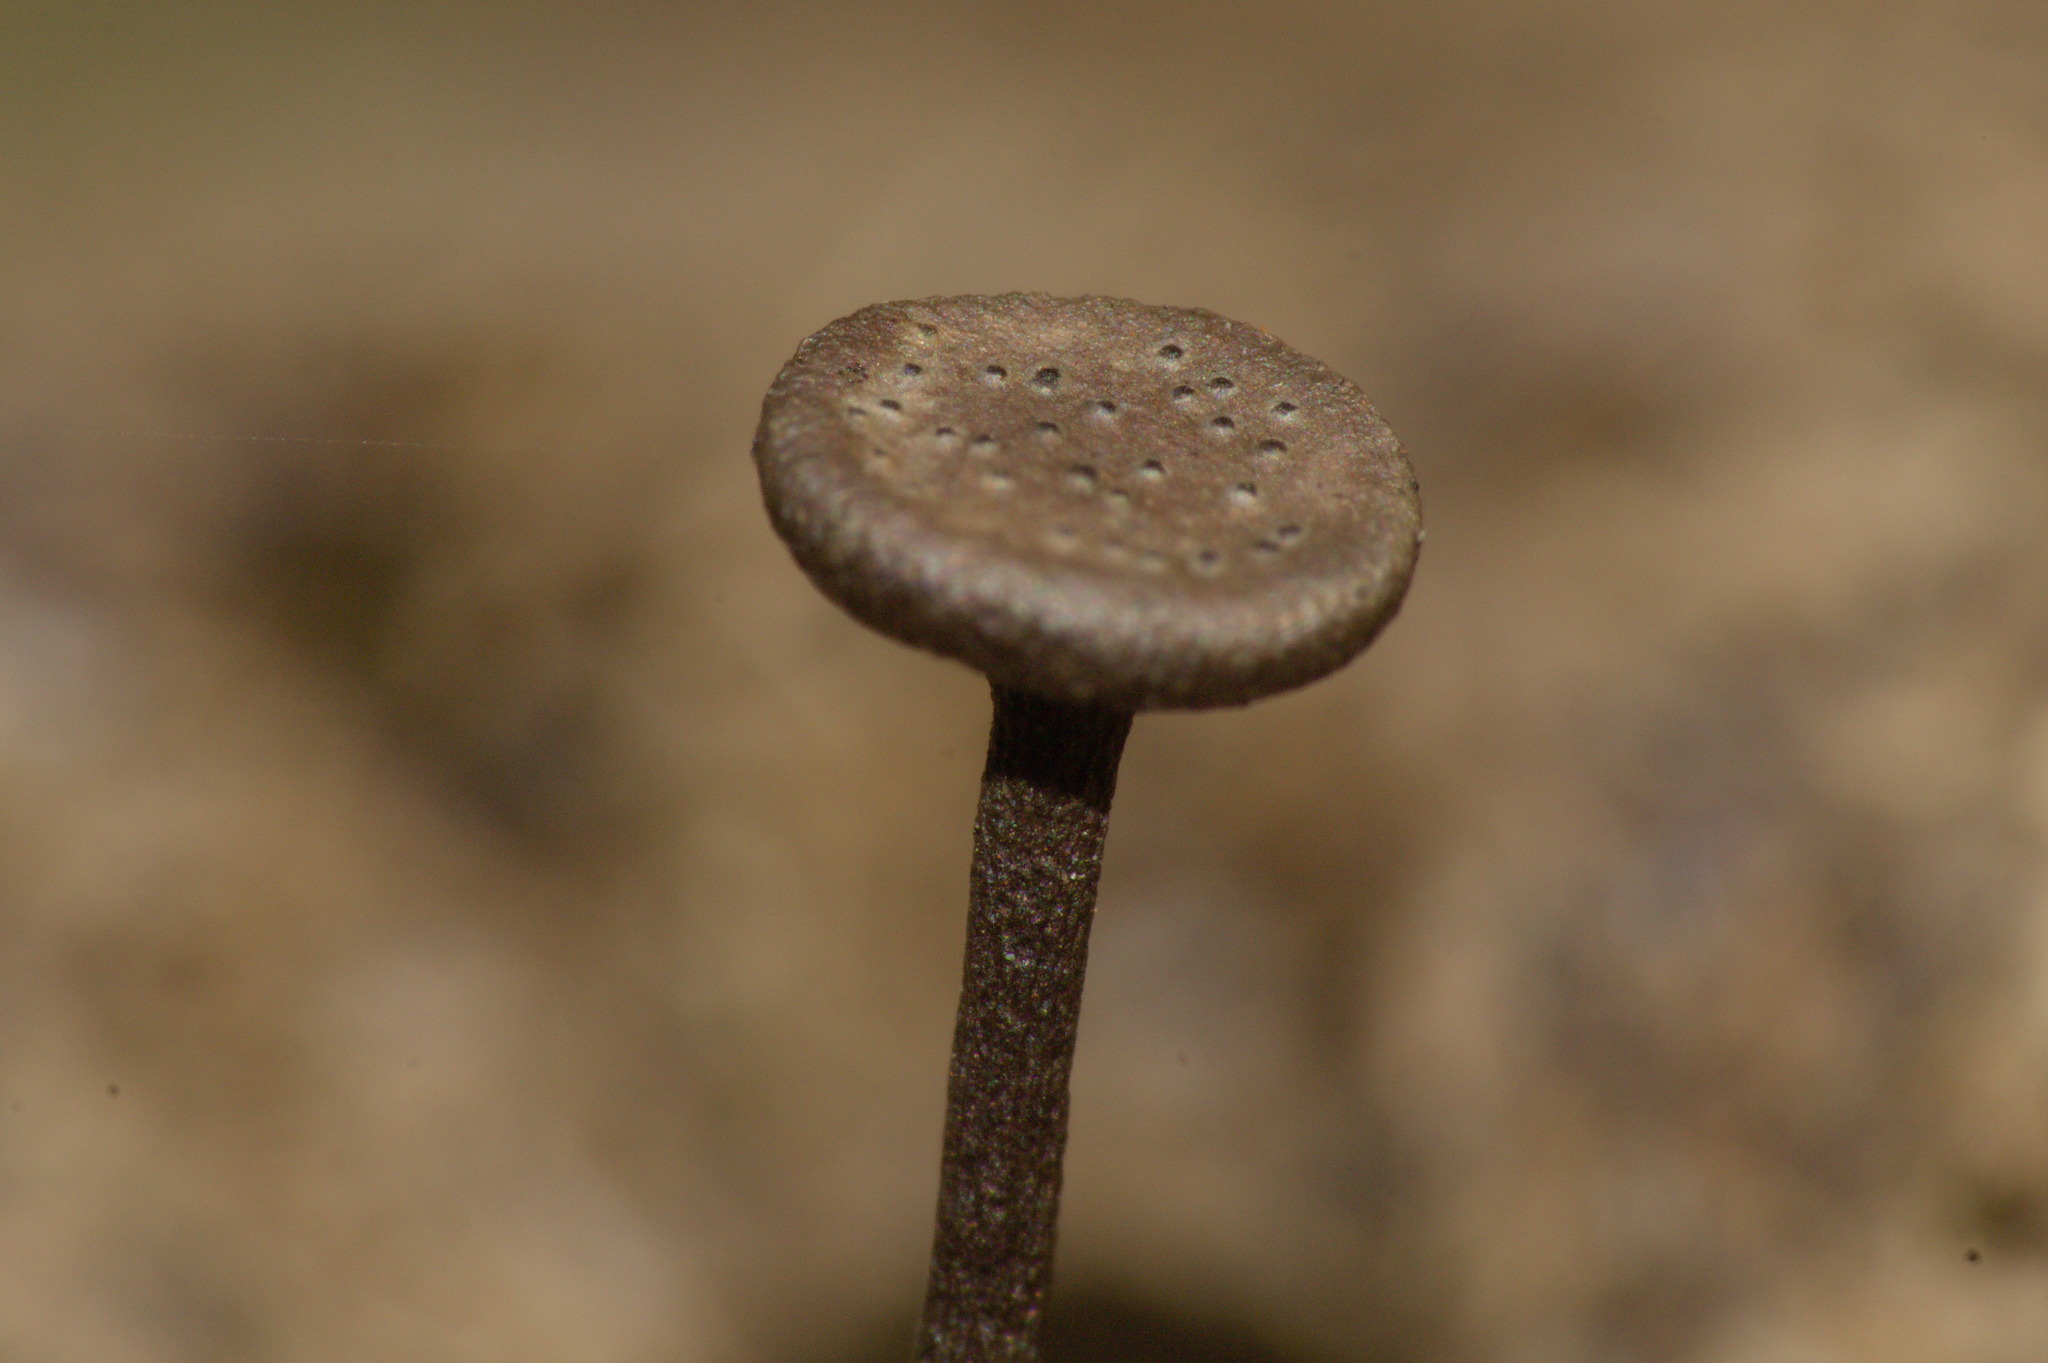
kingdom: Fungi
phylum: Ascomycota
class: Sordariomycetes
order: Xylariales
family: Xylariaceae
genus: Poronia
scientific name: Poronia oedipus
